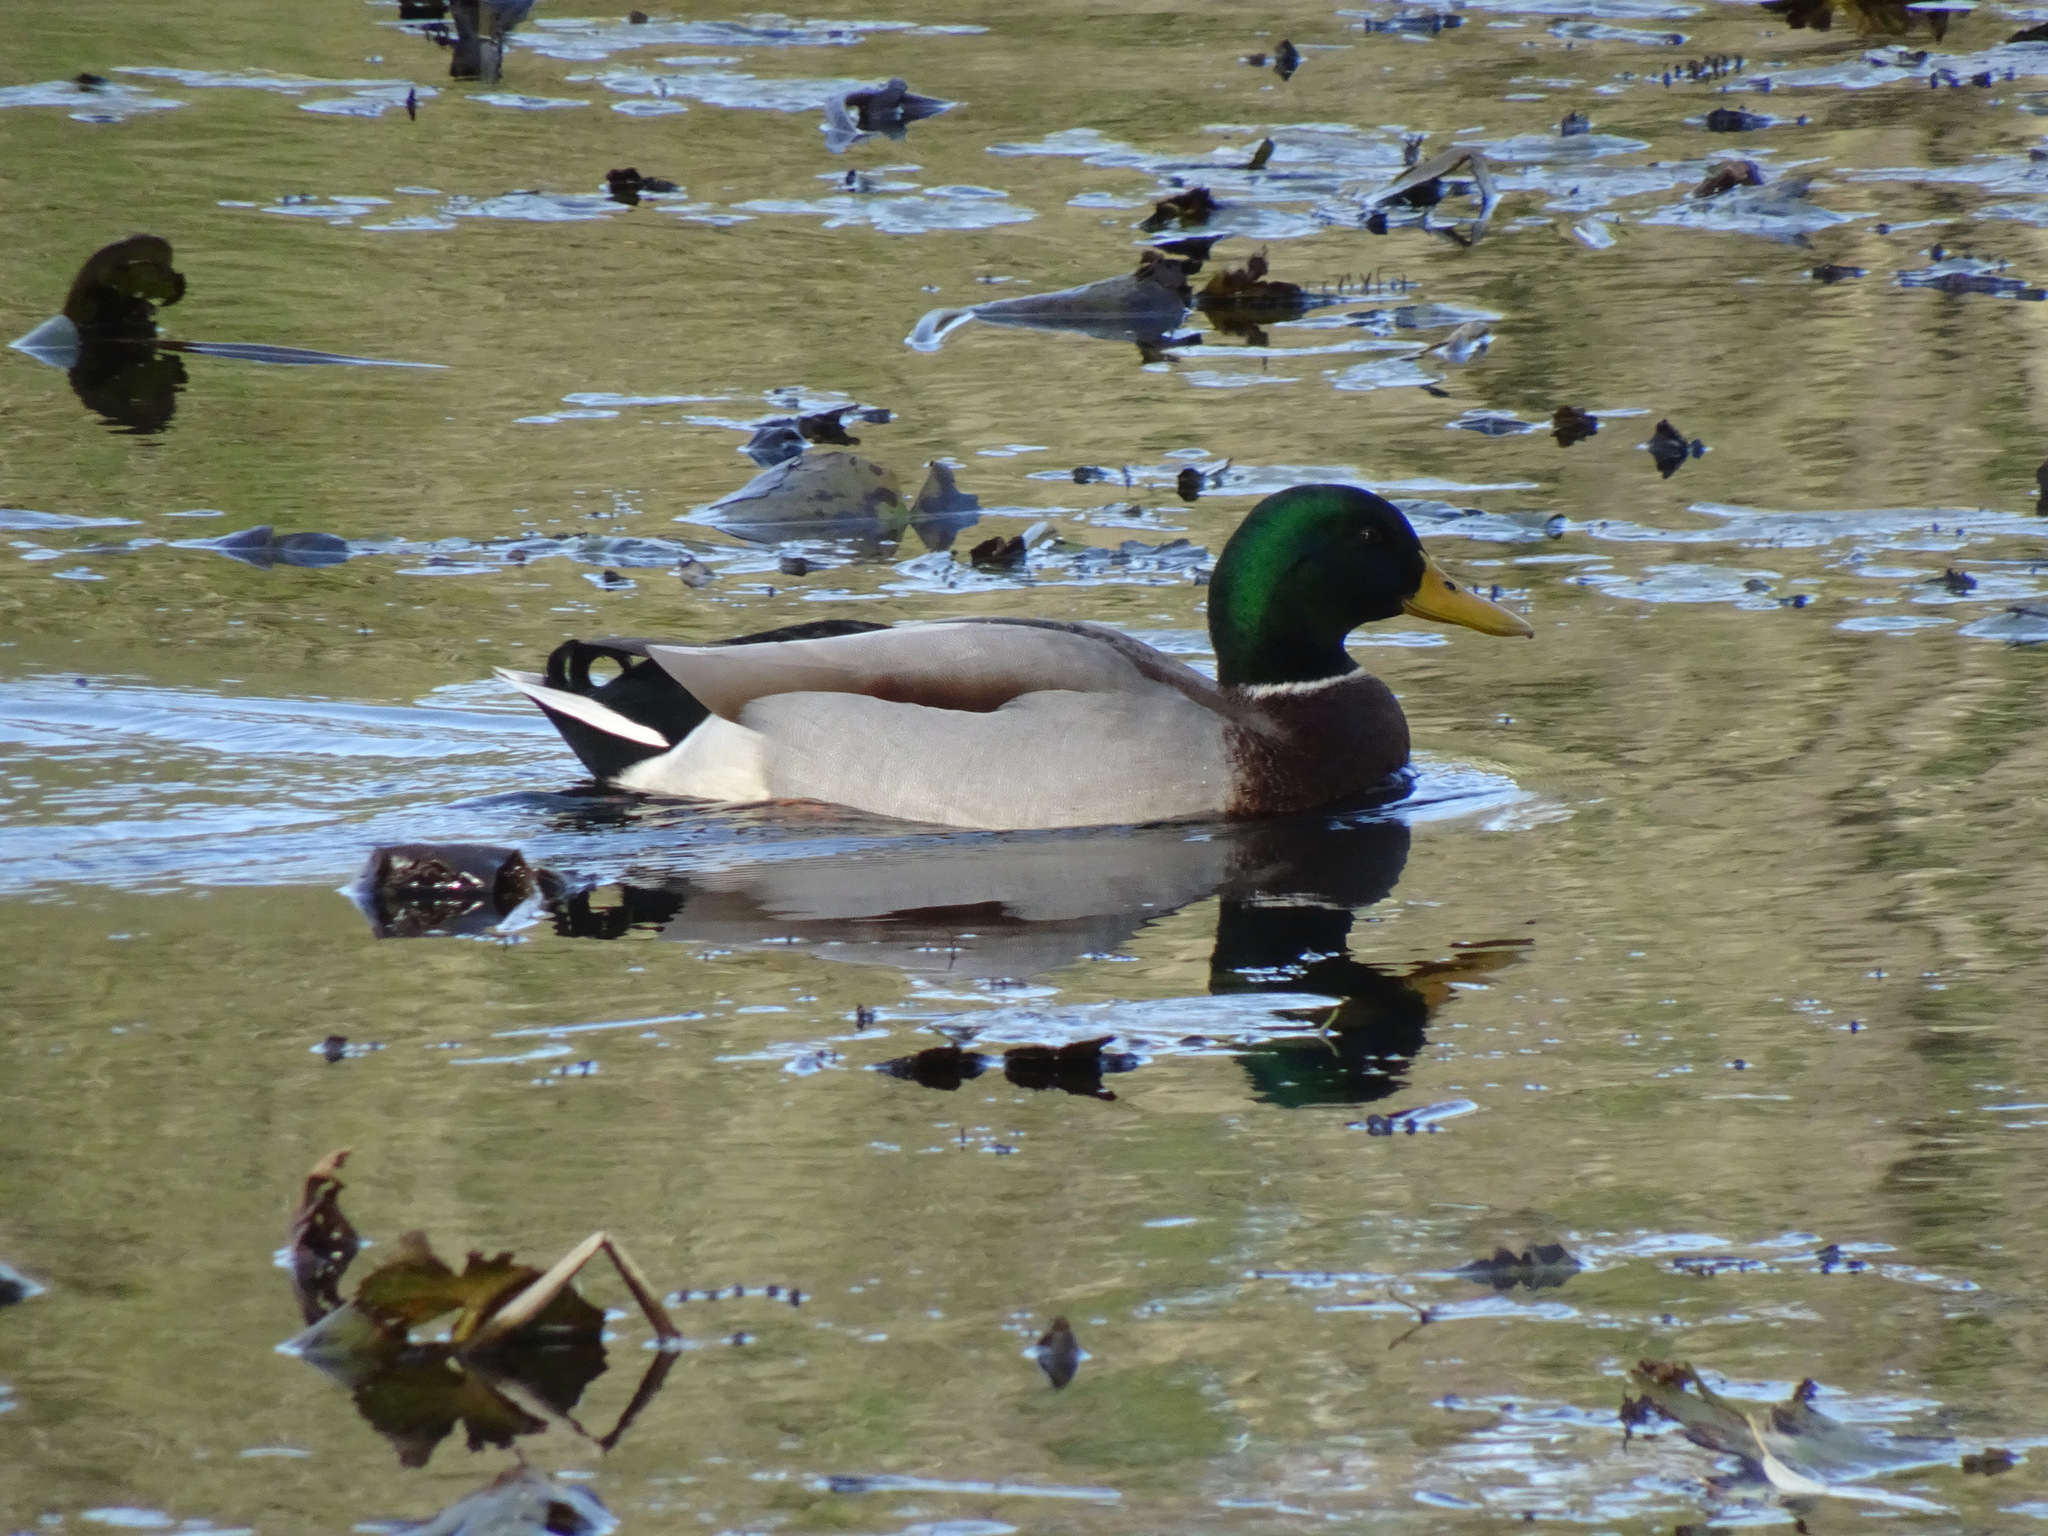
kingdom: Animalia
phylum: Chordata
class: Aves
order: Anseriformes
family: Anatidae
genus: Anas
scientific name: Anas platyrhynchos
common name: Mallard
